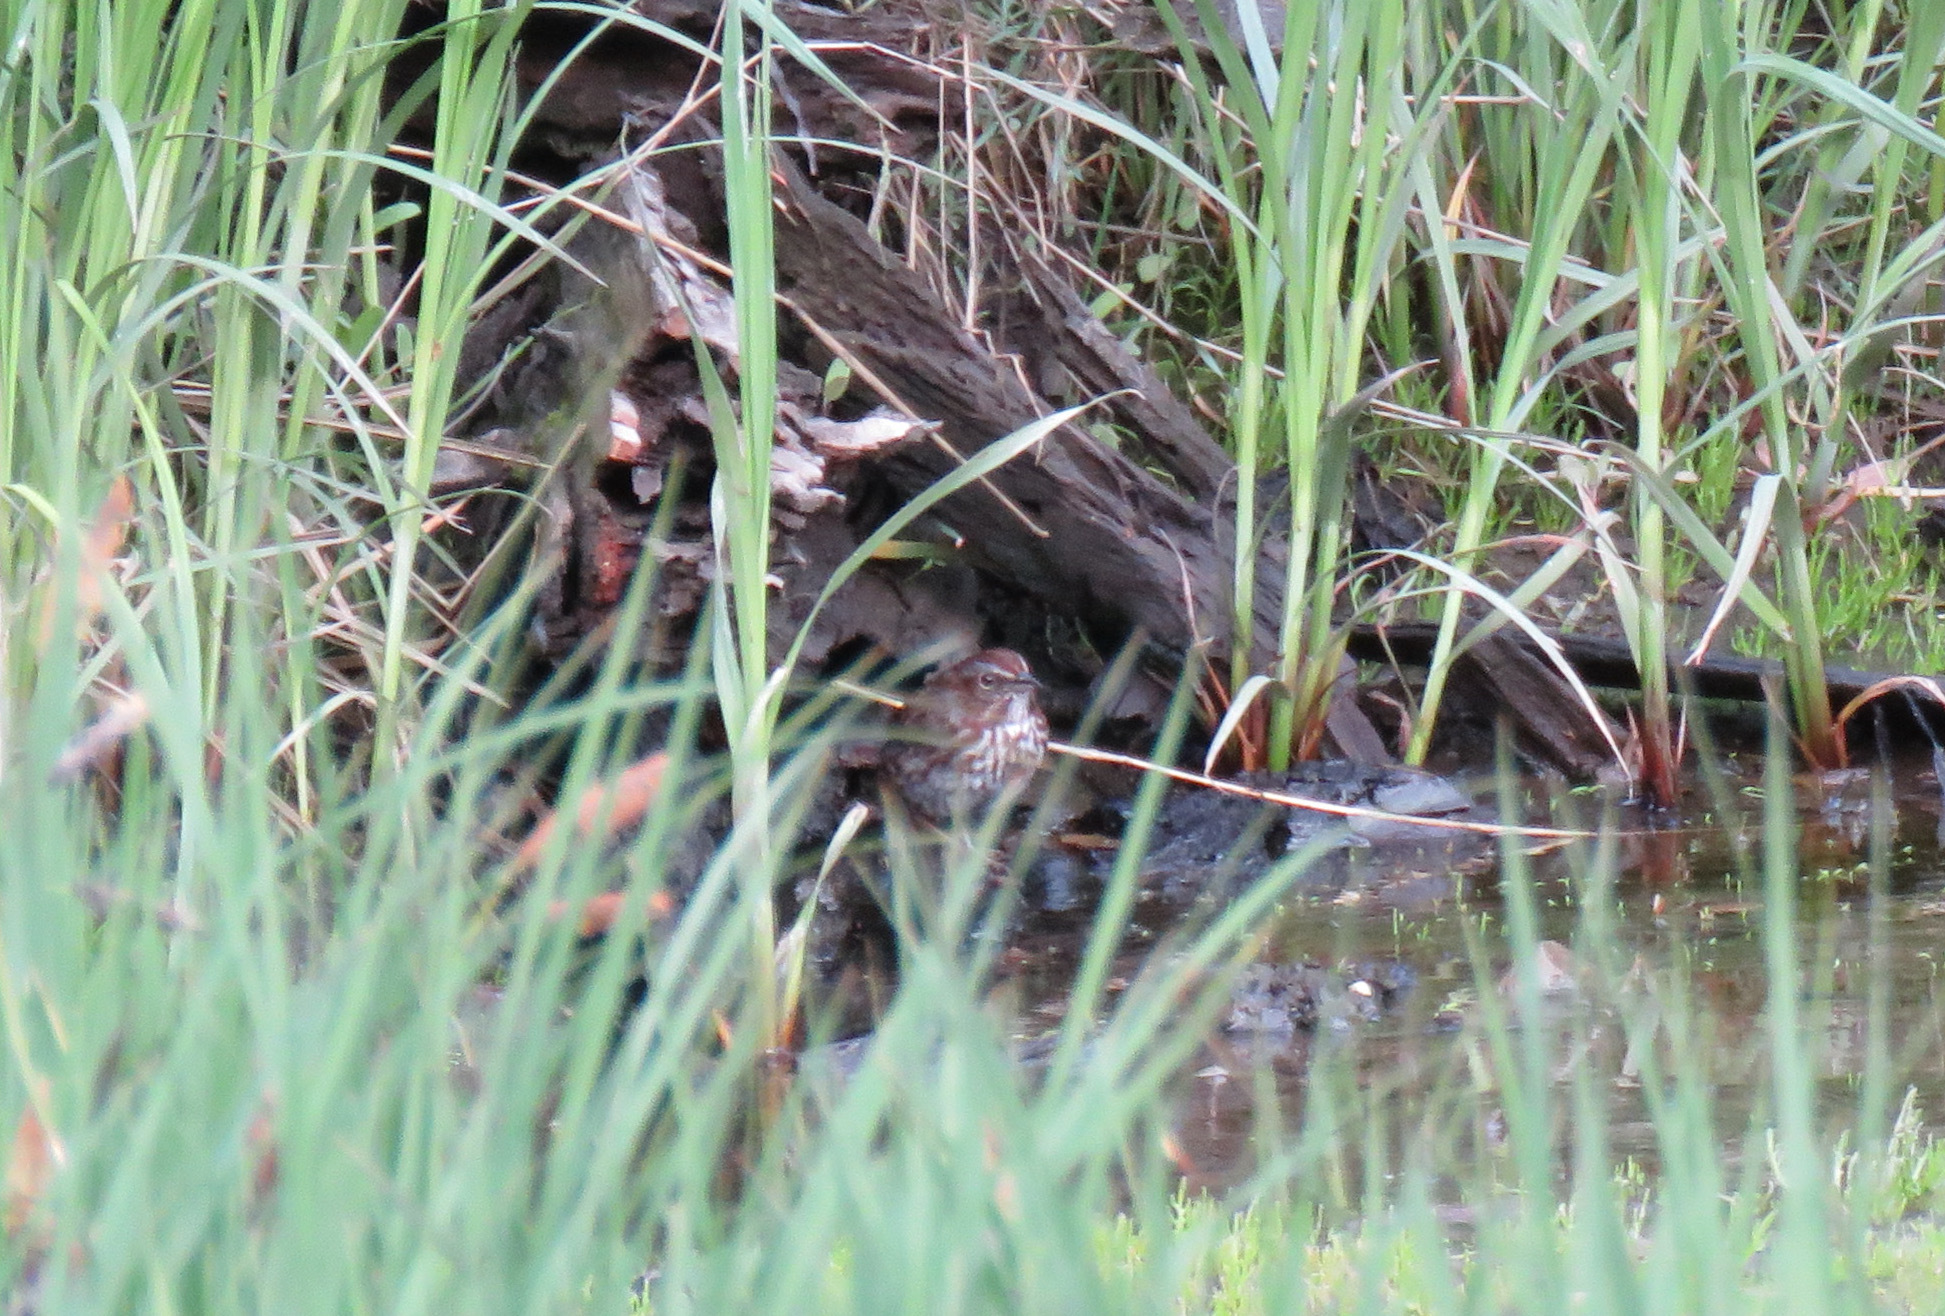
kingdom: Animalia
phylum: Chordata
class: Aves
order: Passeriformes
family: Passerellidae
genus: Melospiza
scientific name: Melospiza melodia
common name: Song sparrow
